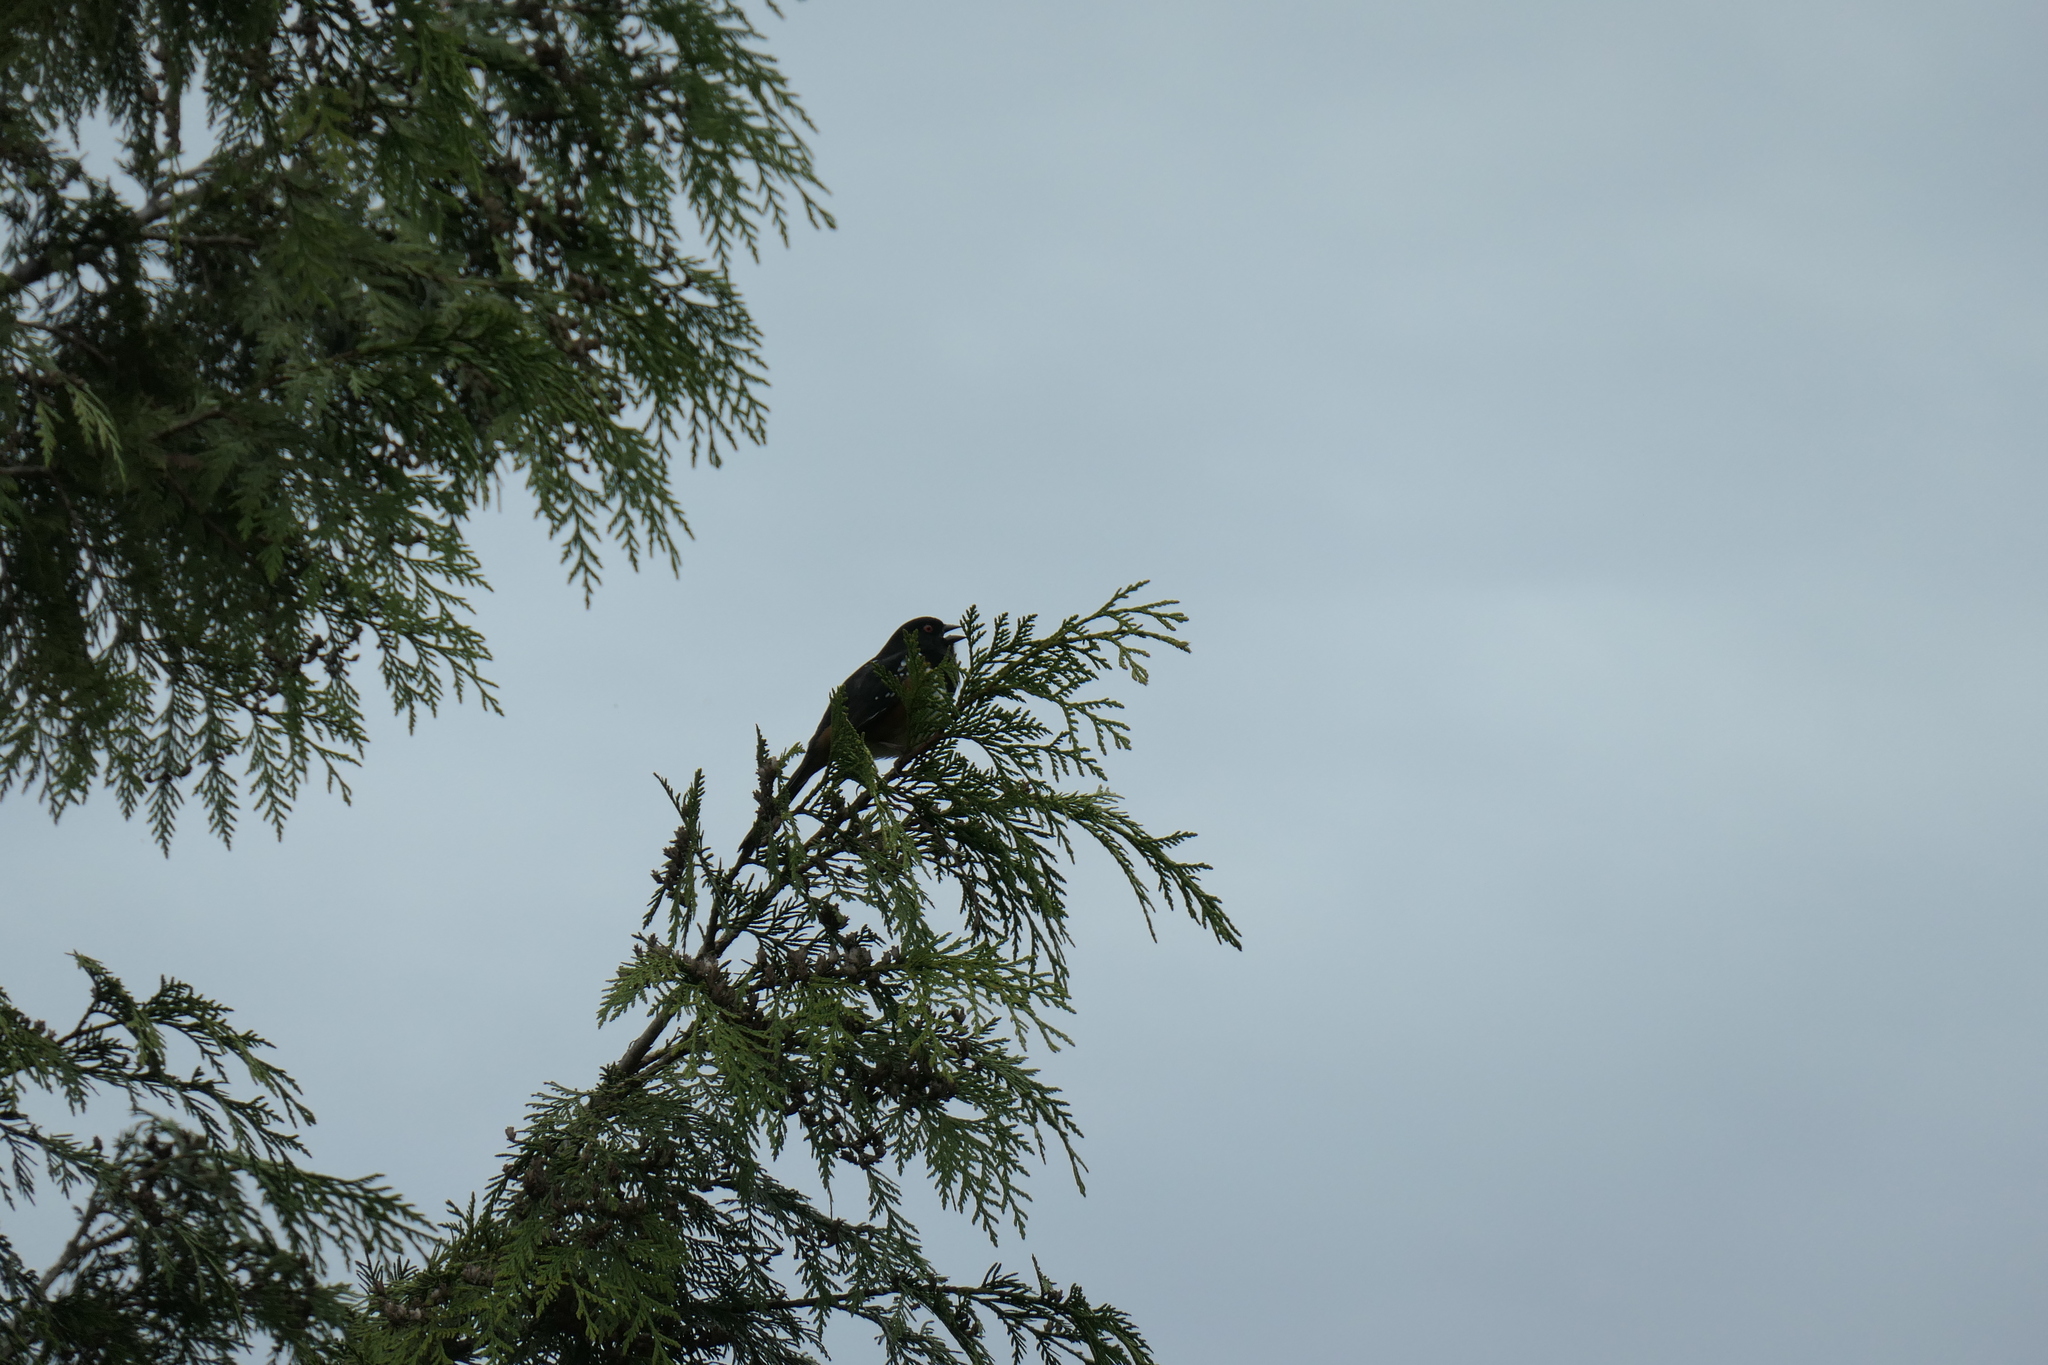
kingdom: Animalia
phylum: Chordata
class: Aves
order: Passeriformes
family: Passerellidae
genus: Pipilo
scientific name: Pipilo maculatus
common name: Spotted towhee
